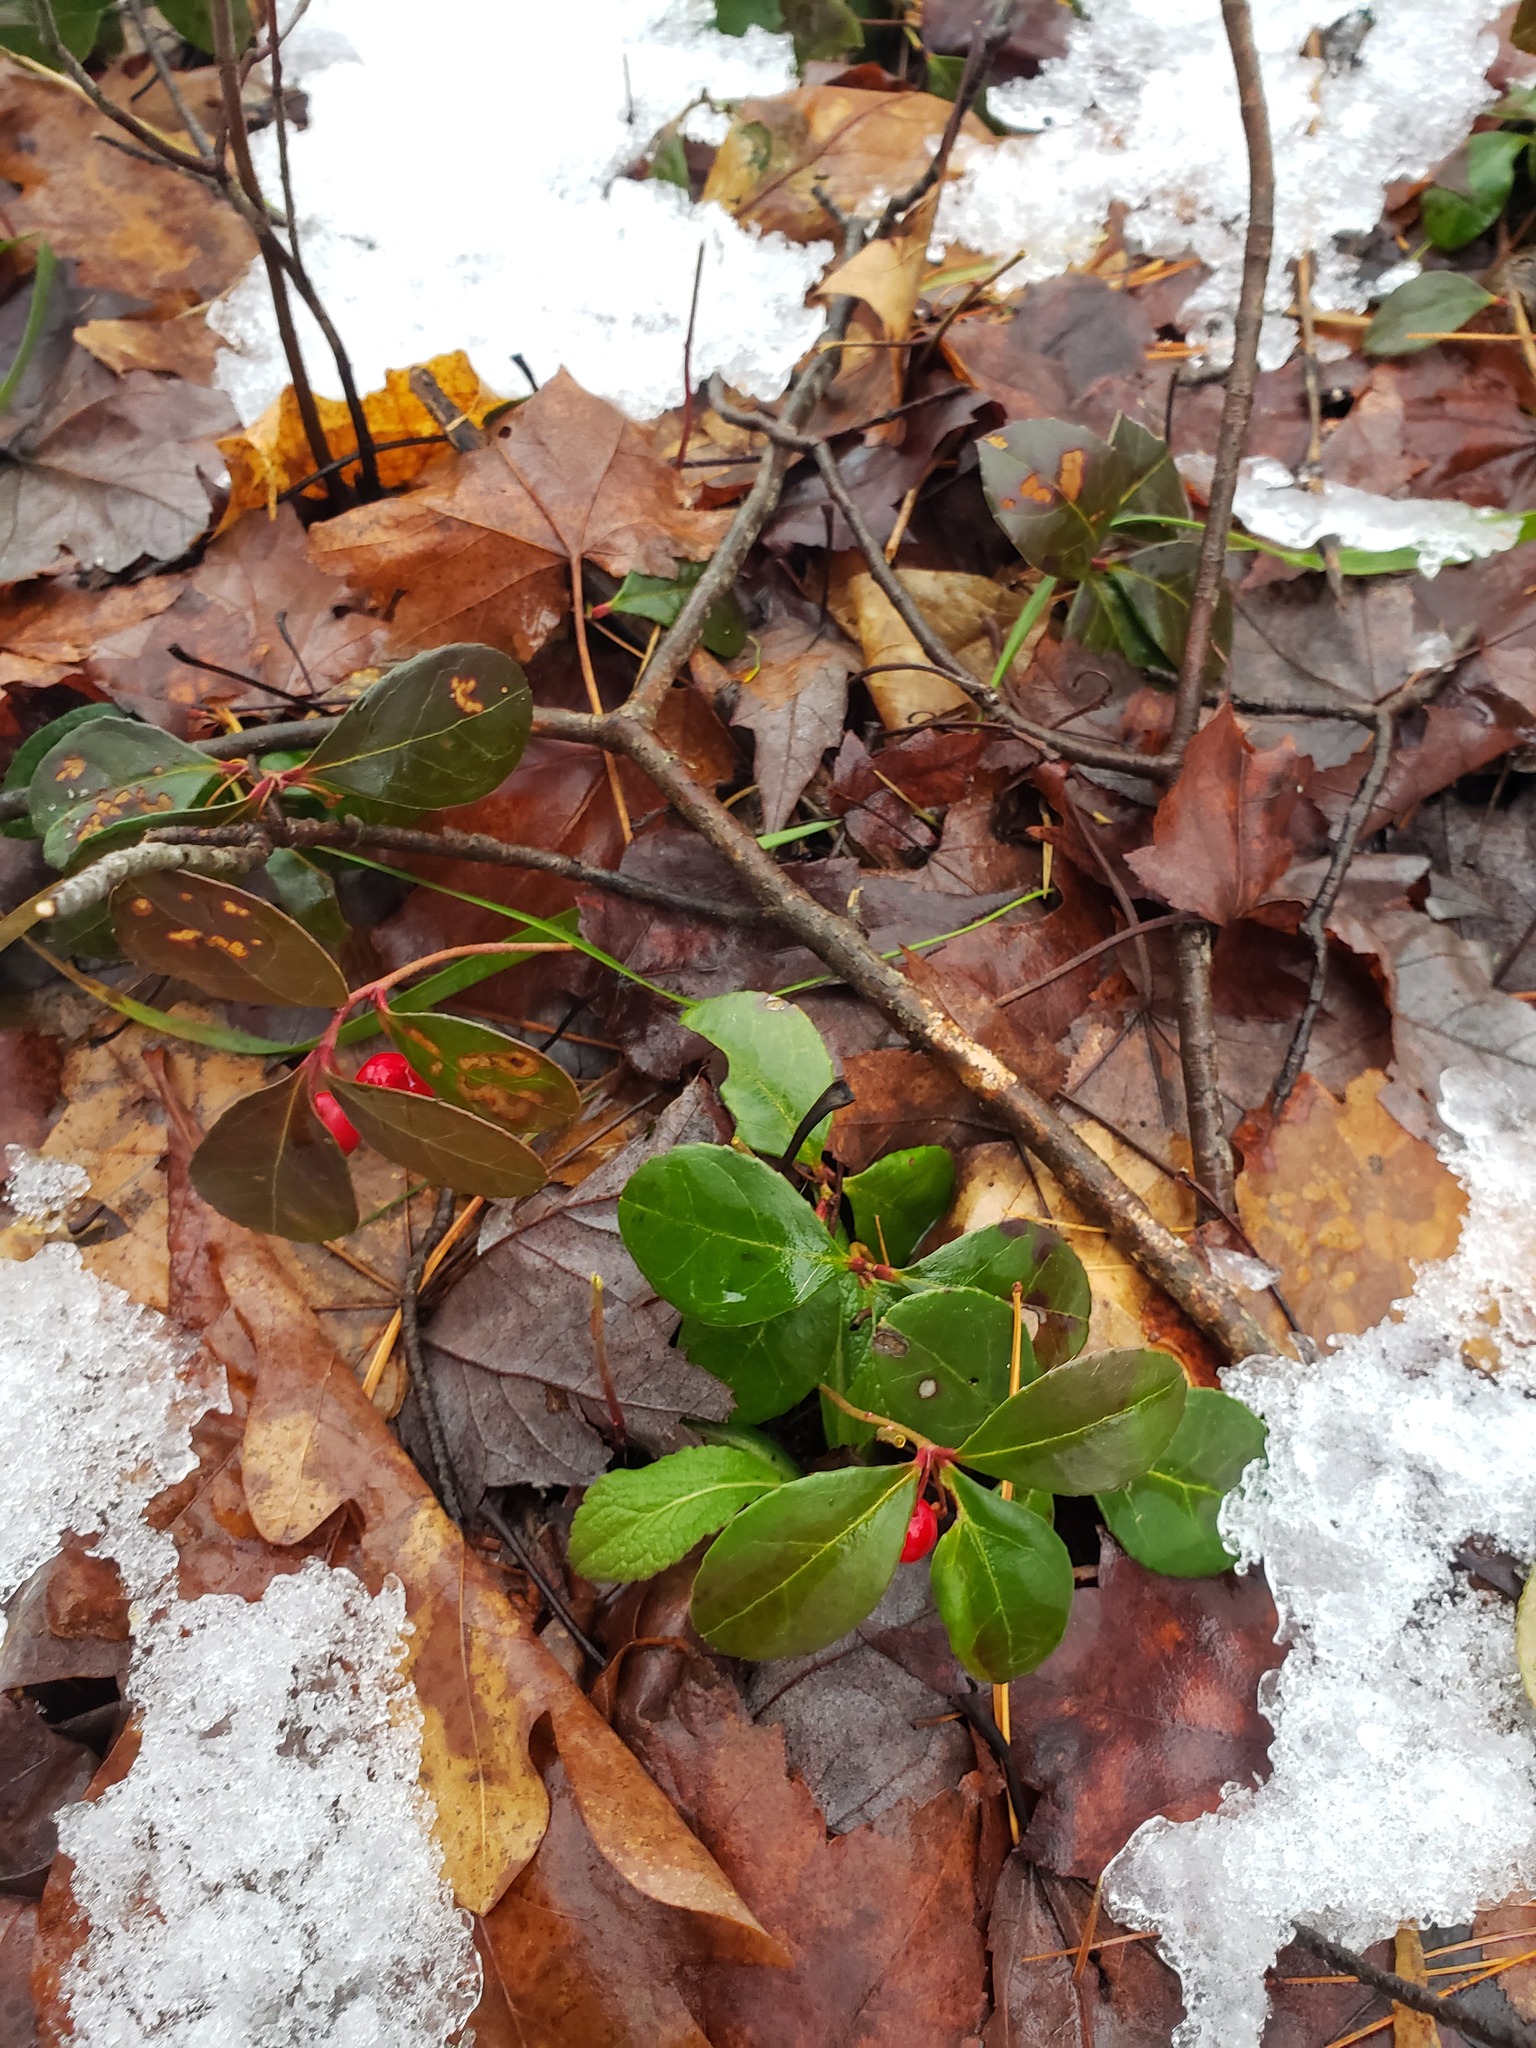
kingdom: Plantae
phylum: Tracheophyta
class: Magnoliopsida
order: Ericales
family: Ericaceae
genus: Gaultheria
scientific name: Gaultheria procumbens
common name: Checkerberry
